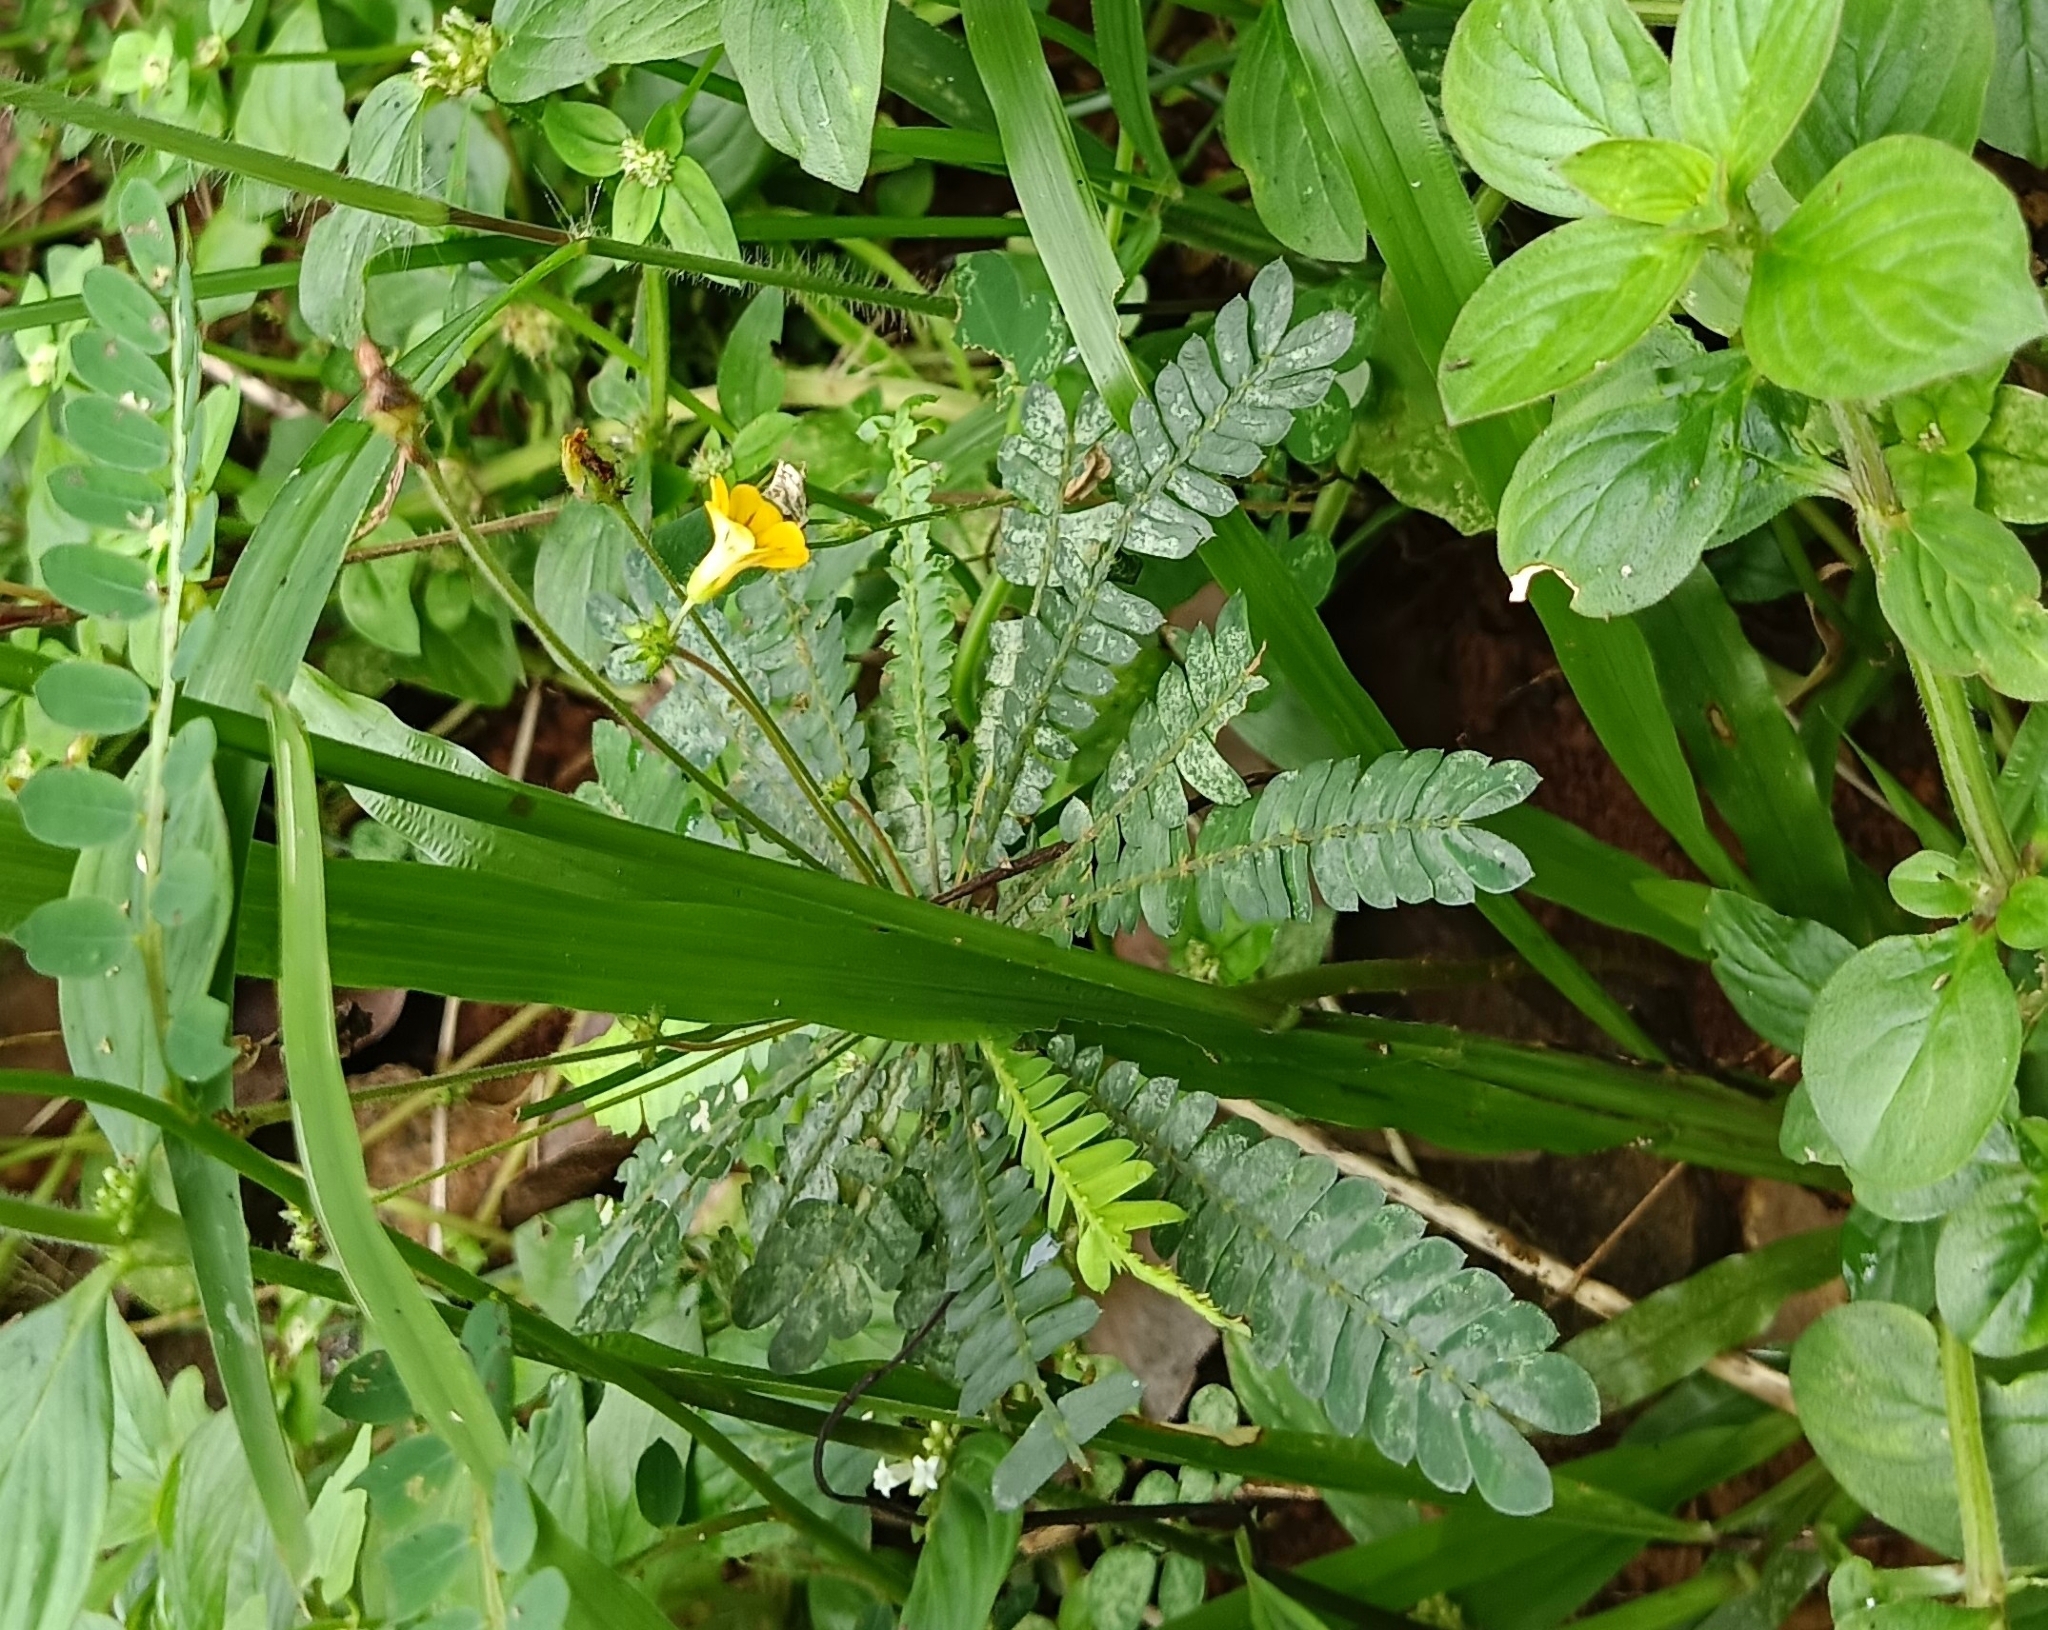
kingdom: Plantae
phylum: Tracheophyta
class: Magnoliopsida
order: Oxalidales
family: Oxalidaceae
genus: Biophytum
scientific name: Biophytum sensitivum
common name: Lifeplant
